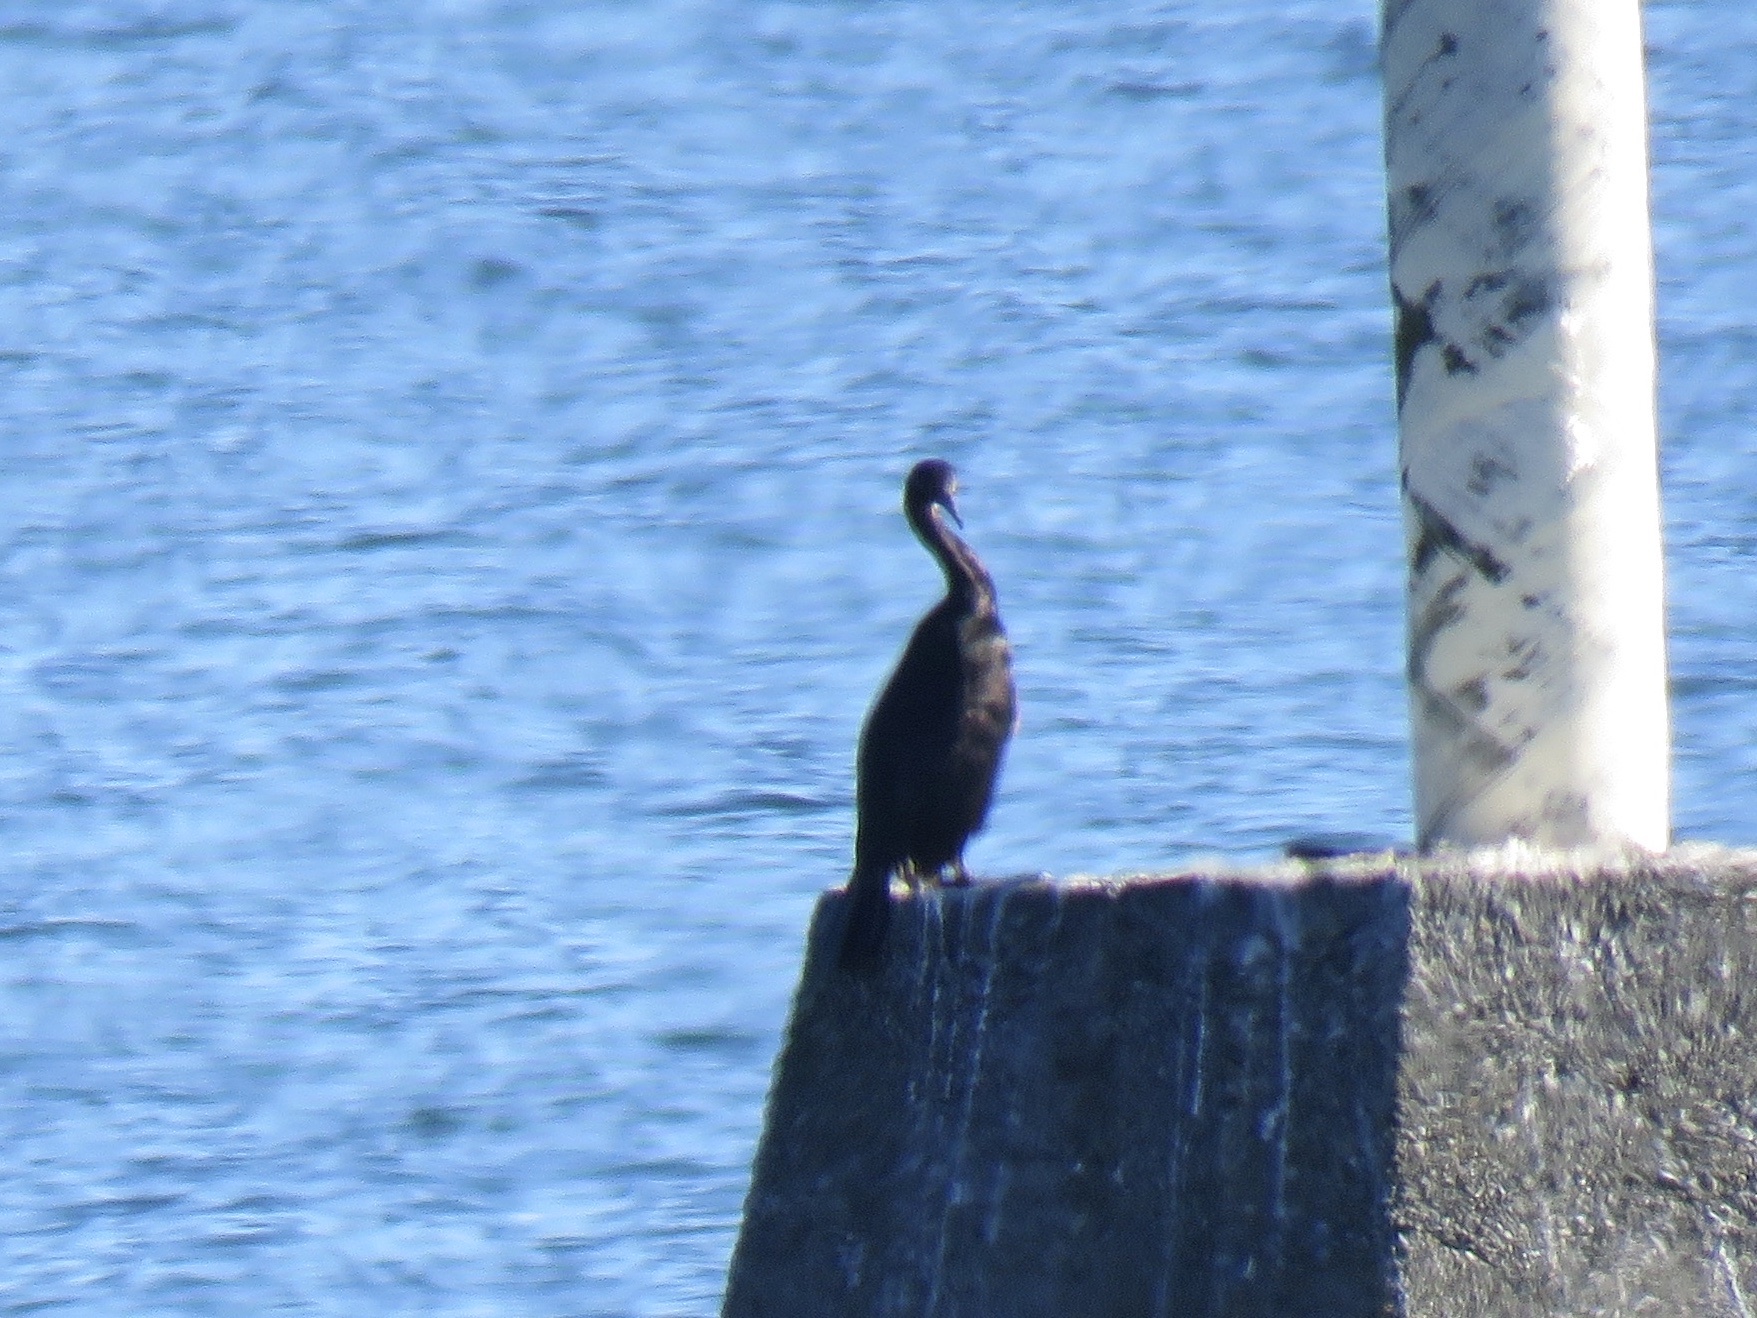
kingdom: Animalia
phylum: Chordata
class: Aves
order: Suliformes
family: Phalacrocoracidae
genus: Phalacrocorax
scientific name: Phalacrocorax pelagicus
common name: Pelagic cormorant
